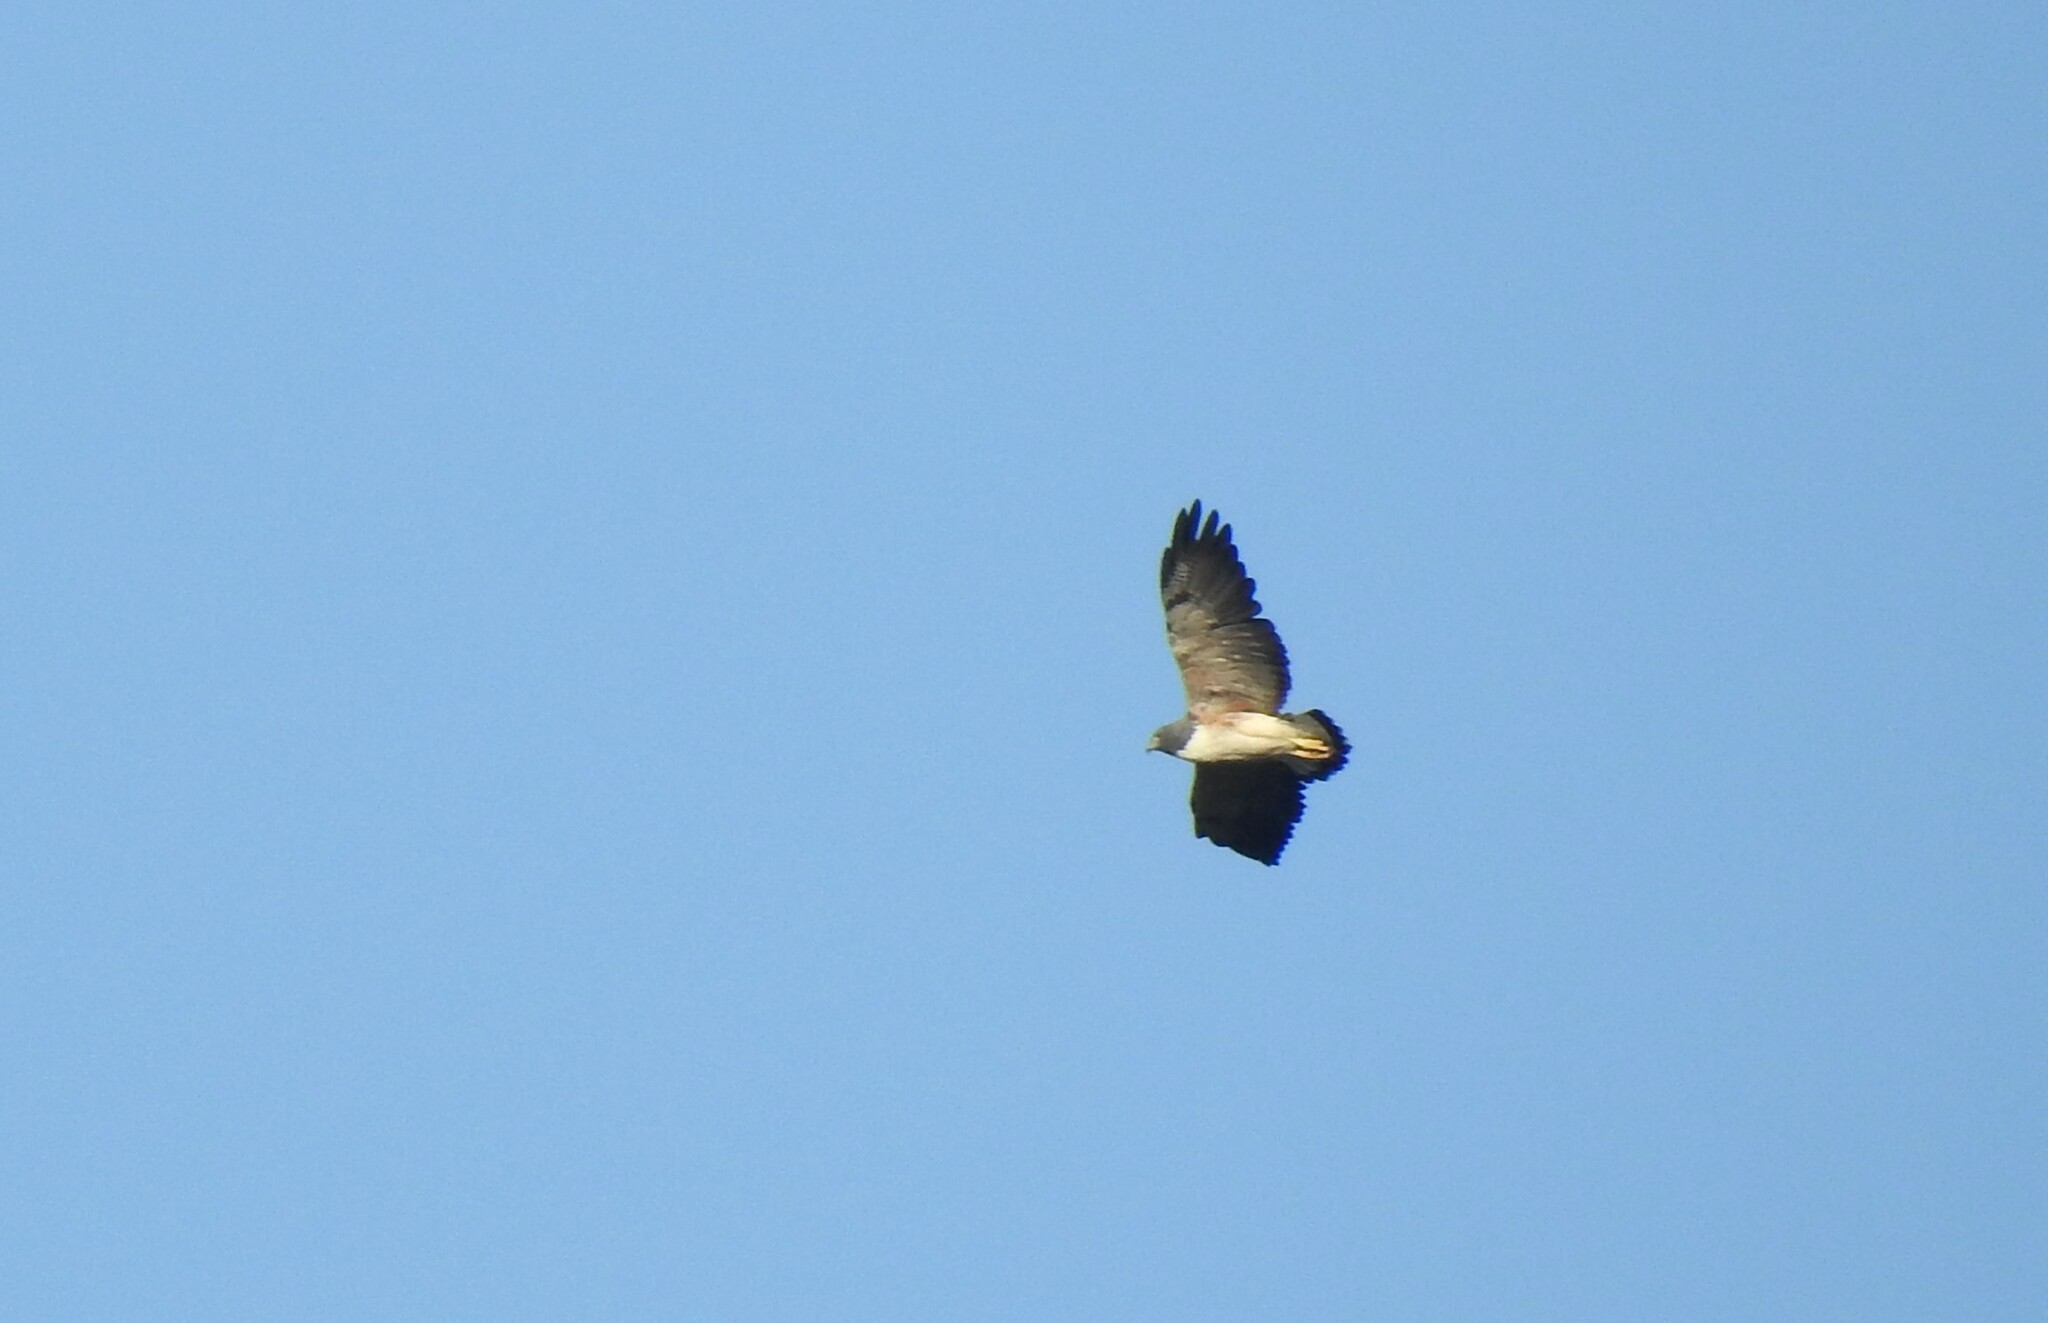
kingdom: Animalia
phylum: Chordata
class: Aves
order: Accipitriformes
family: Accipitridae
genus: Buteo
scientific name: Buteo albicaudatus
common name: White-tailed hawk
